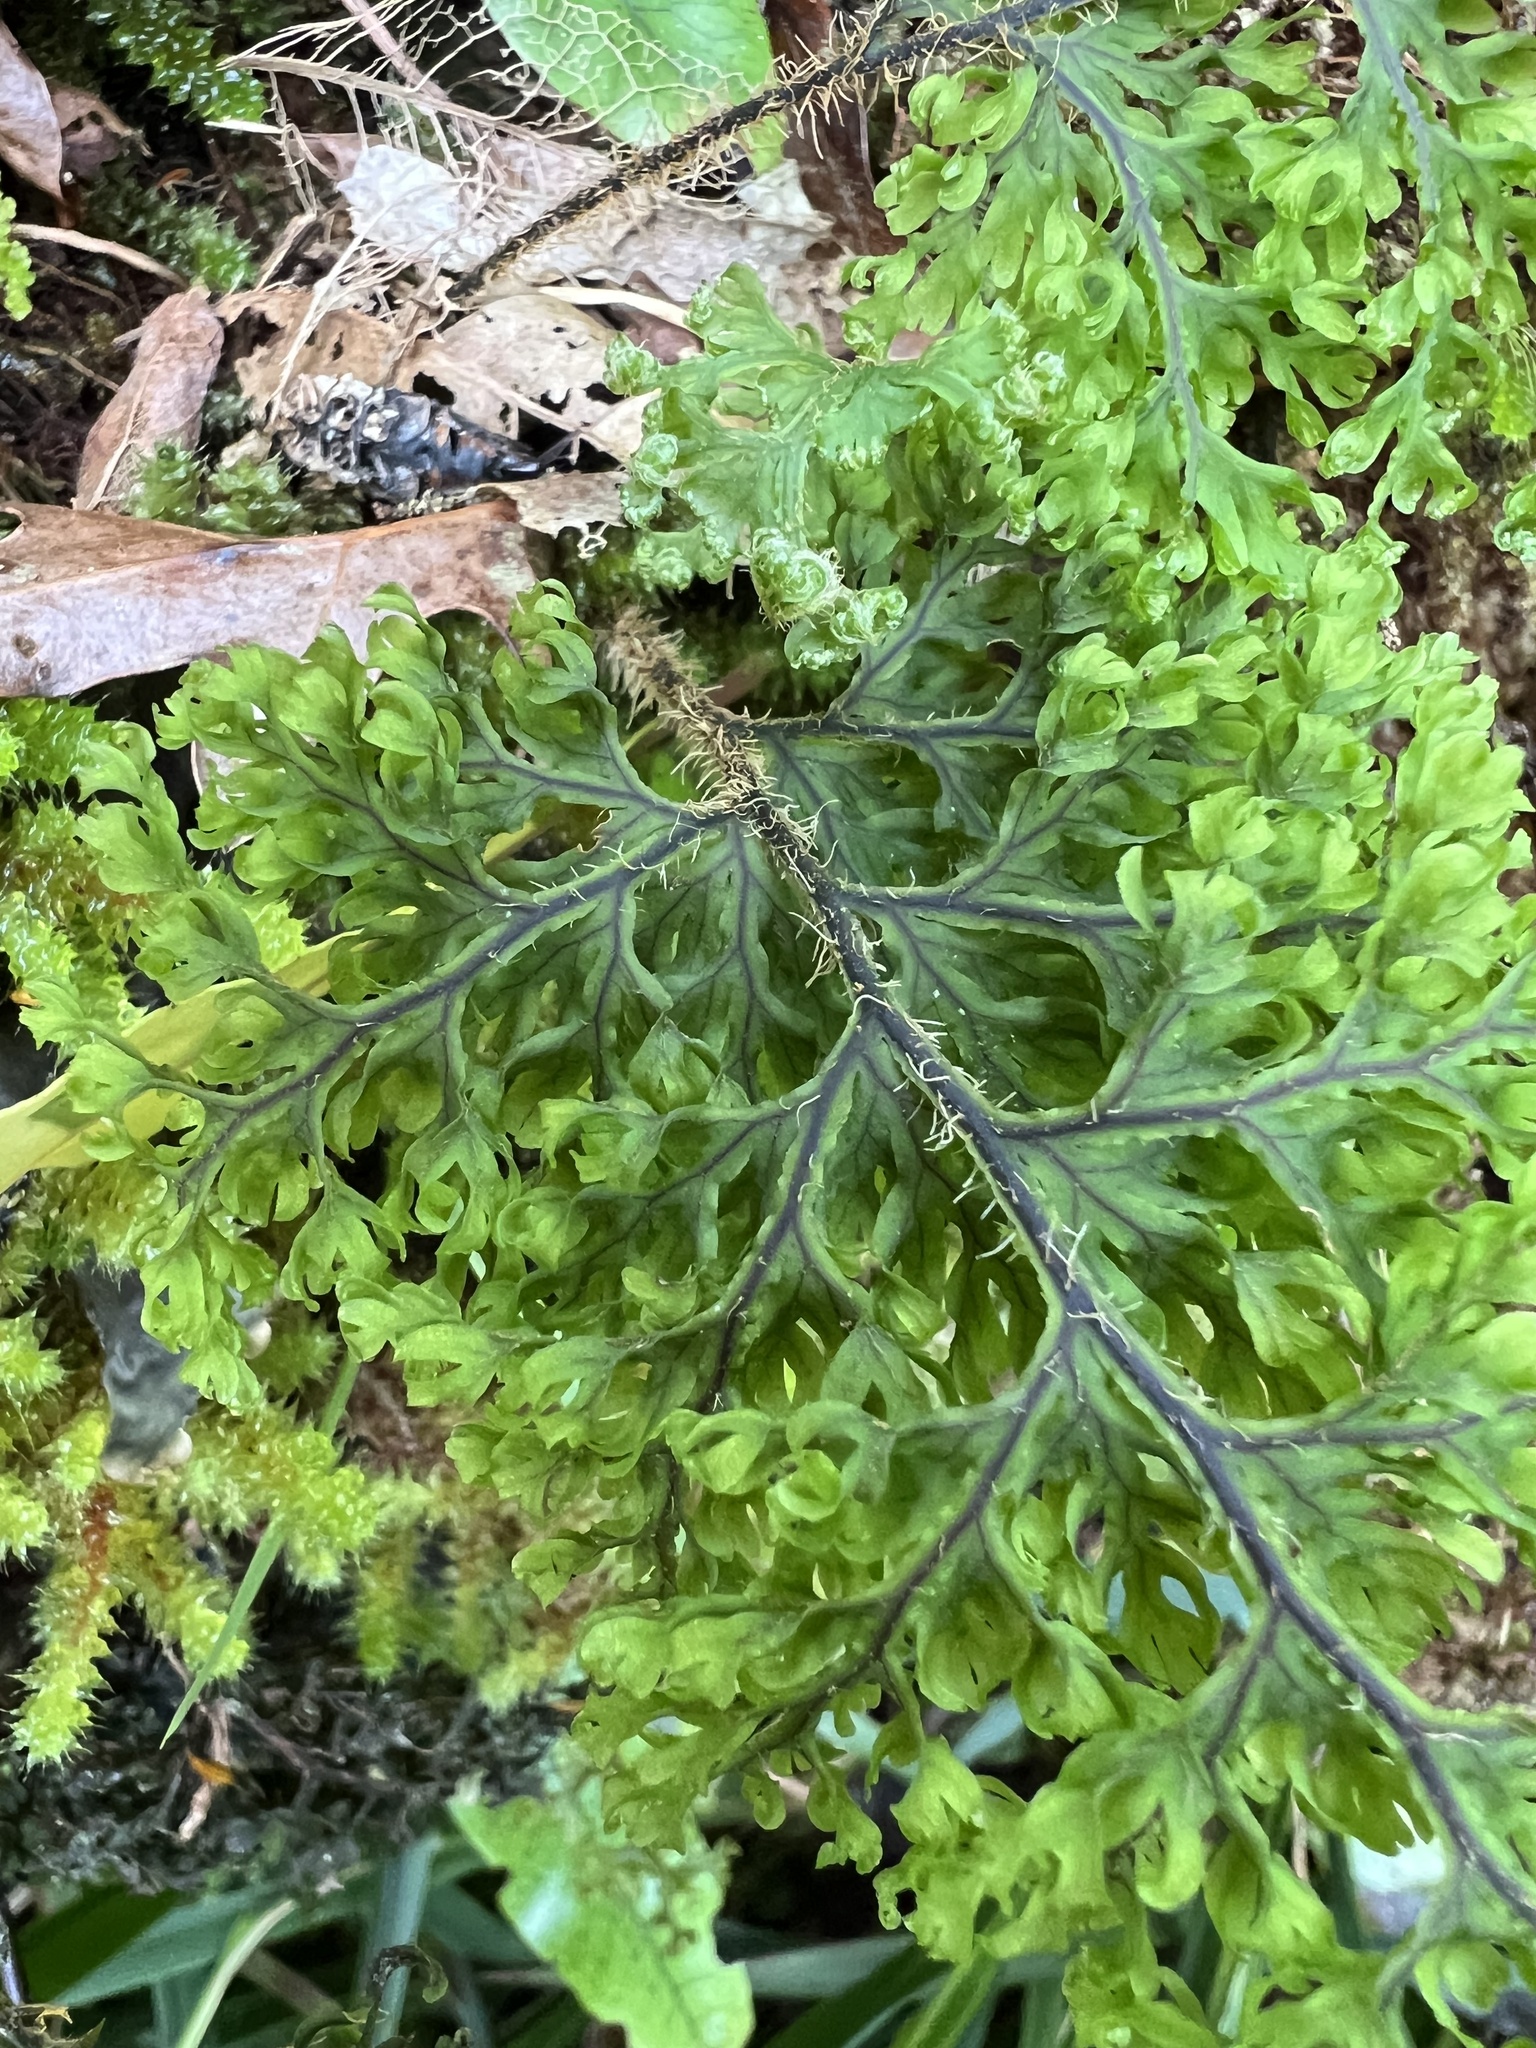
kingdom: Plantae
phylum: Tracheophyta
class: Polypodiopsida
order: Hymenophyllales
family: Hymenophyllaceae
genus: Hymenophyllum
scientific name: Hymenophyllum scabrum
